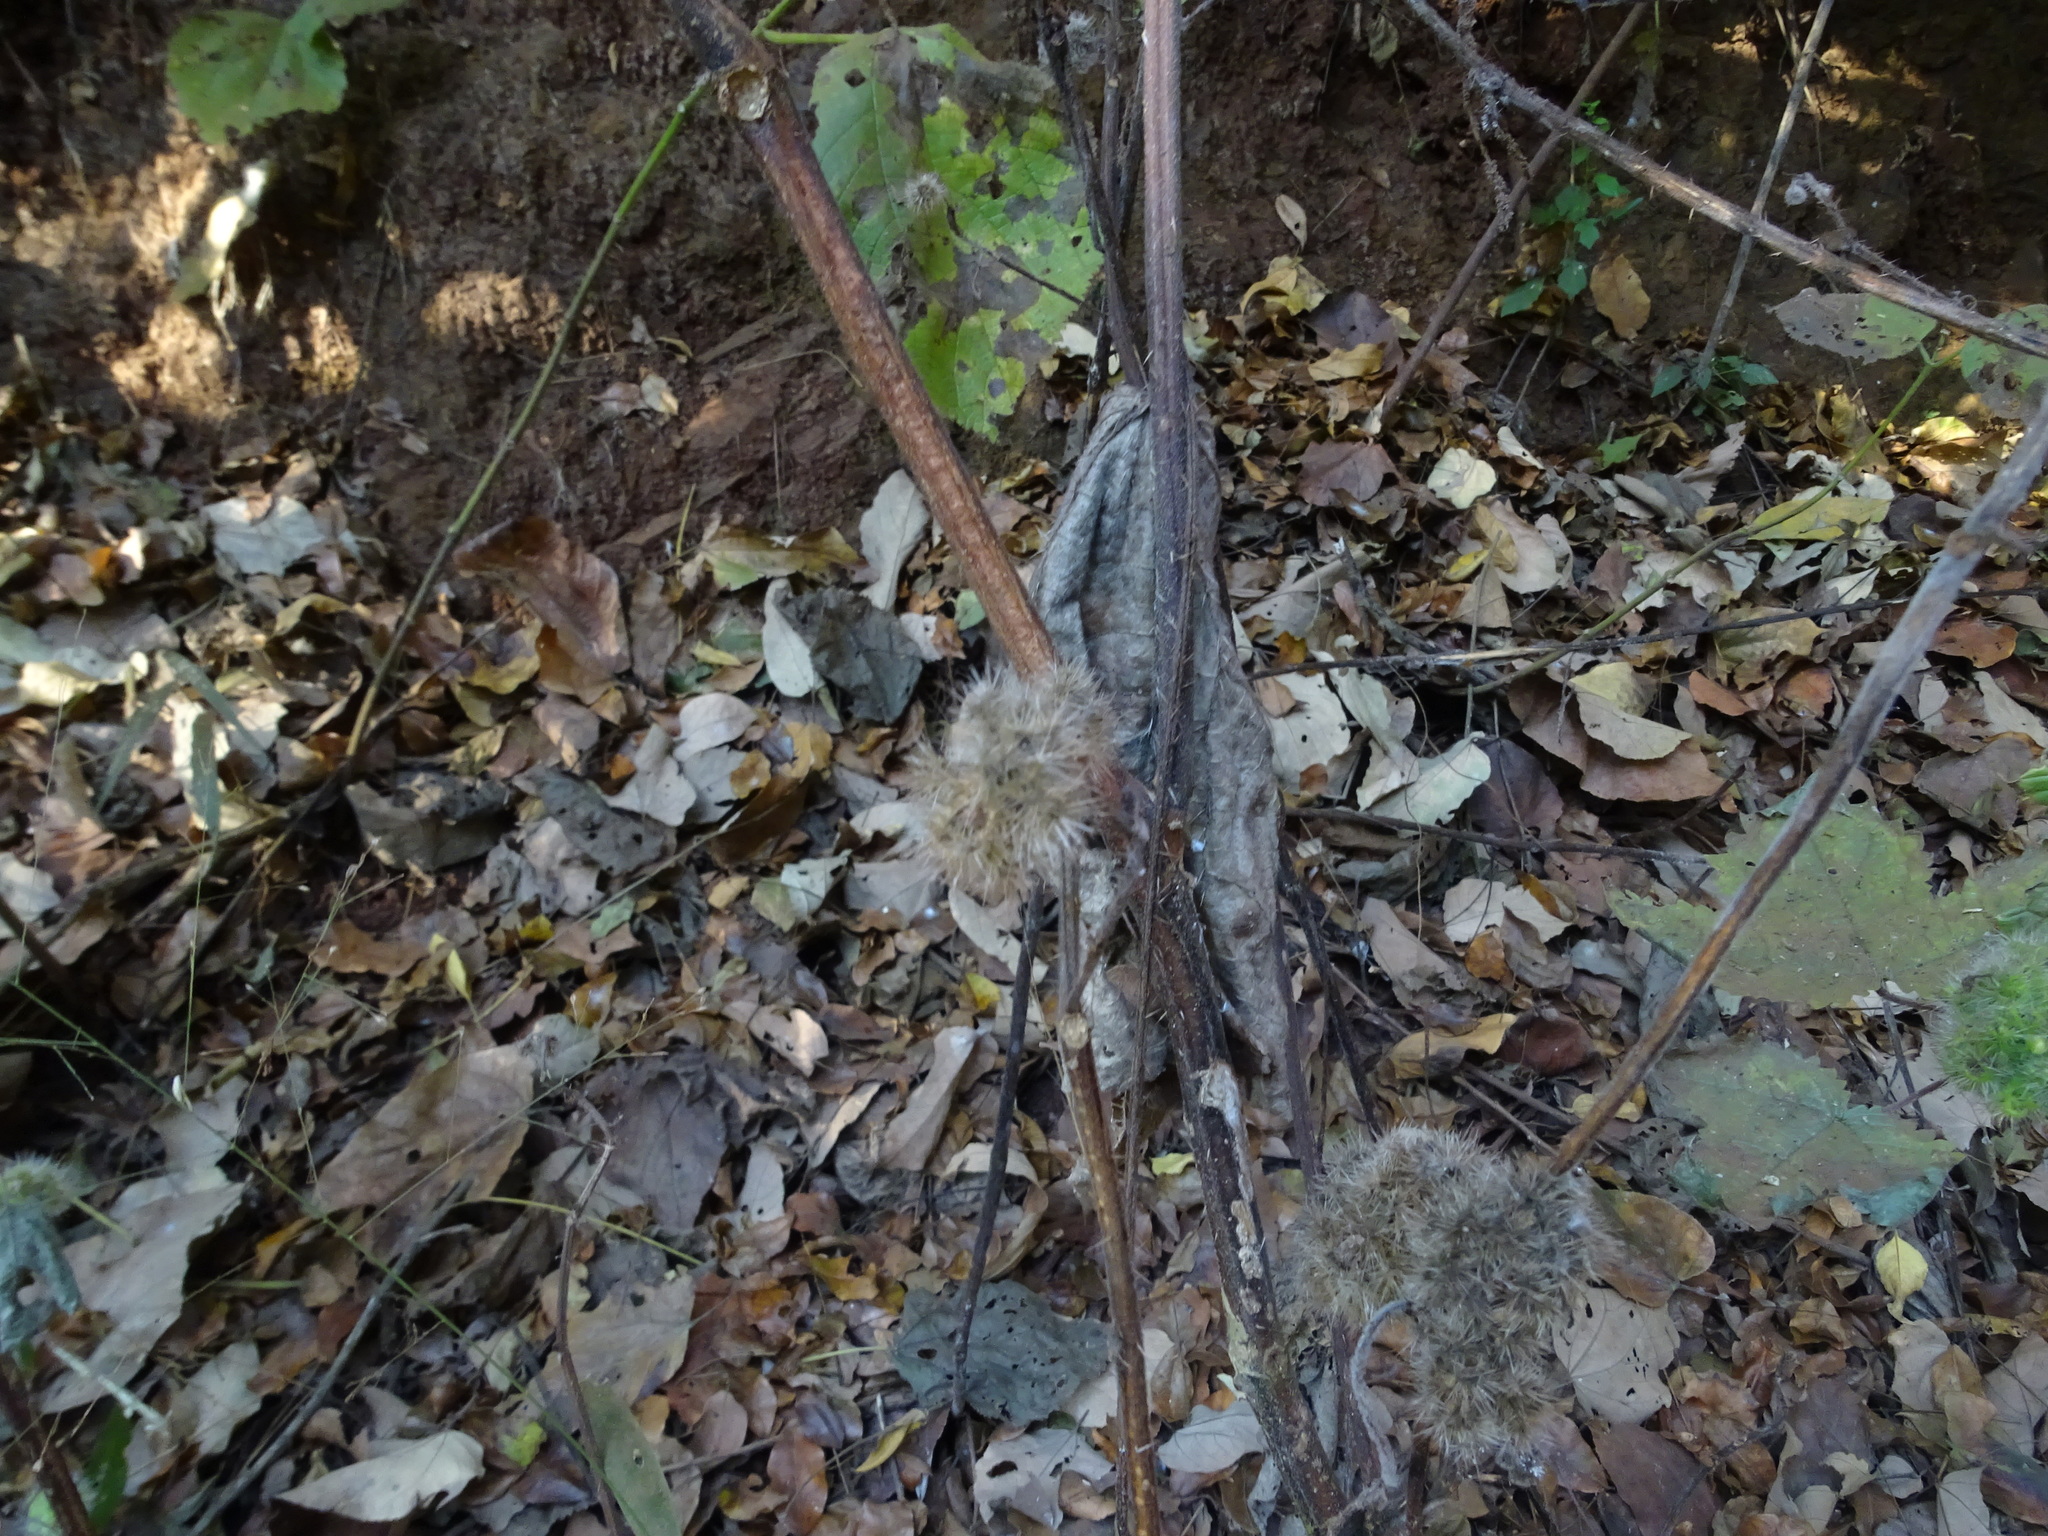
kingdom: Plantae
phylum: Tracheophyta
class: Magnoliopsida
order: Rosales
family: Urticaceae
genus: Girardinia
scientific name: Girardinia diversifolia
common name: Himalayan-nettle
